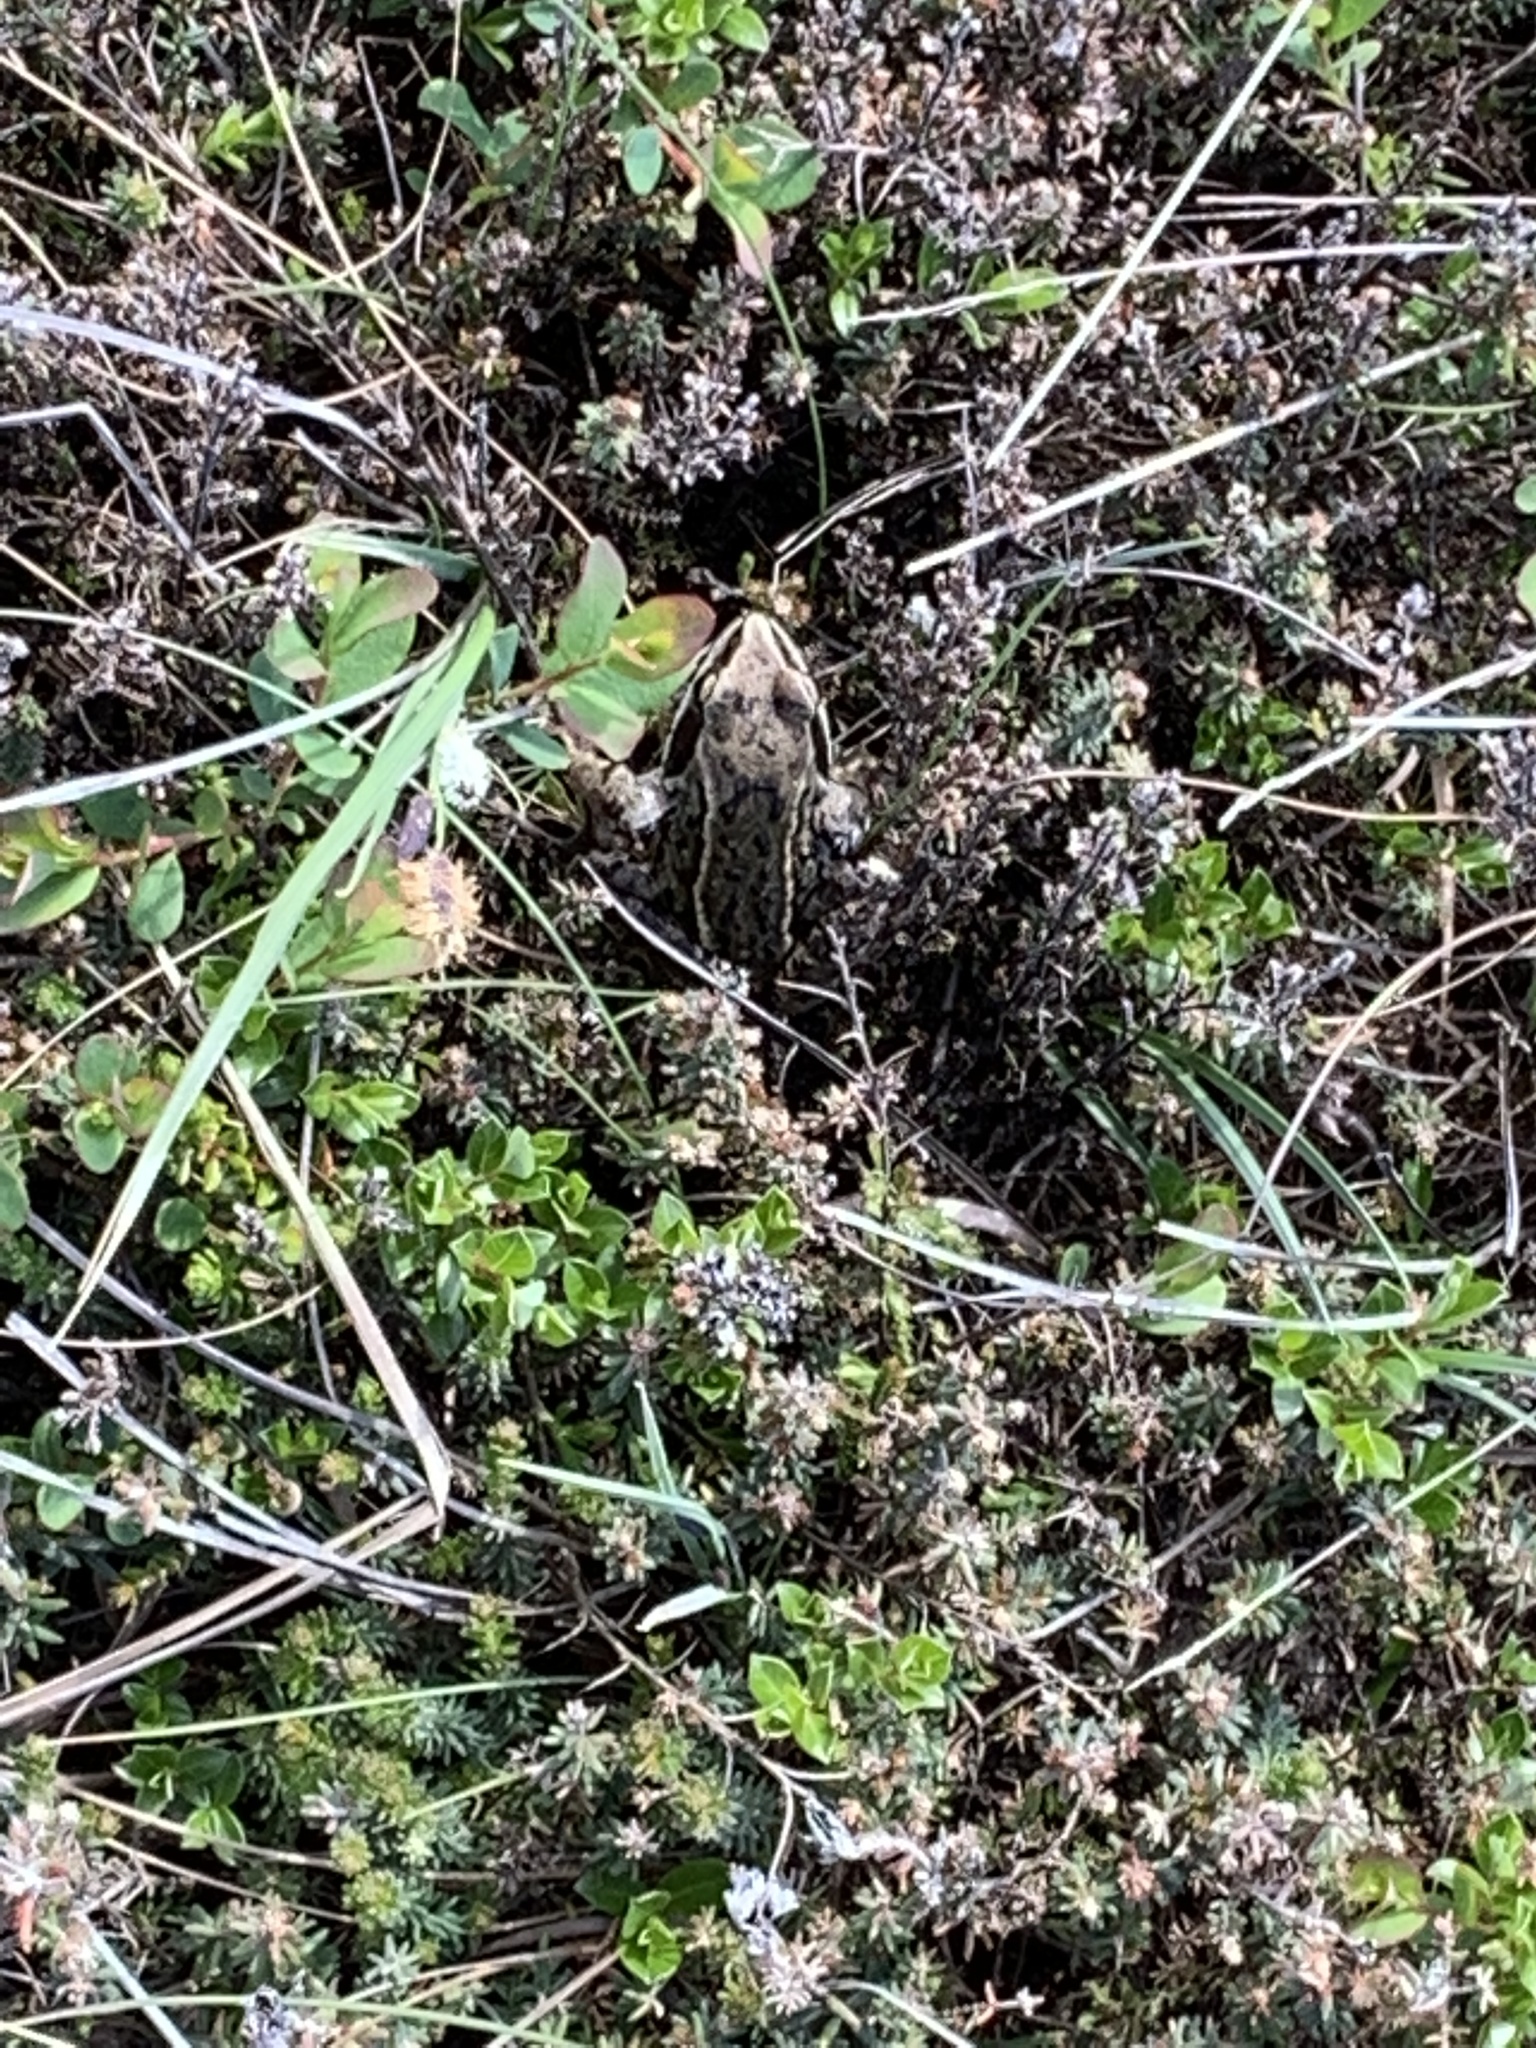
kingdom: Animalia
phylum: Chordata
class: Amphibia
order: Anura
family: Ranidae
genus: Rana
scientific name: Rana temporaria
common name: Common frog
